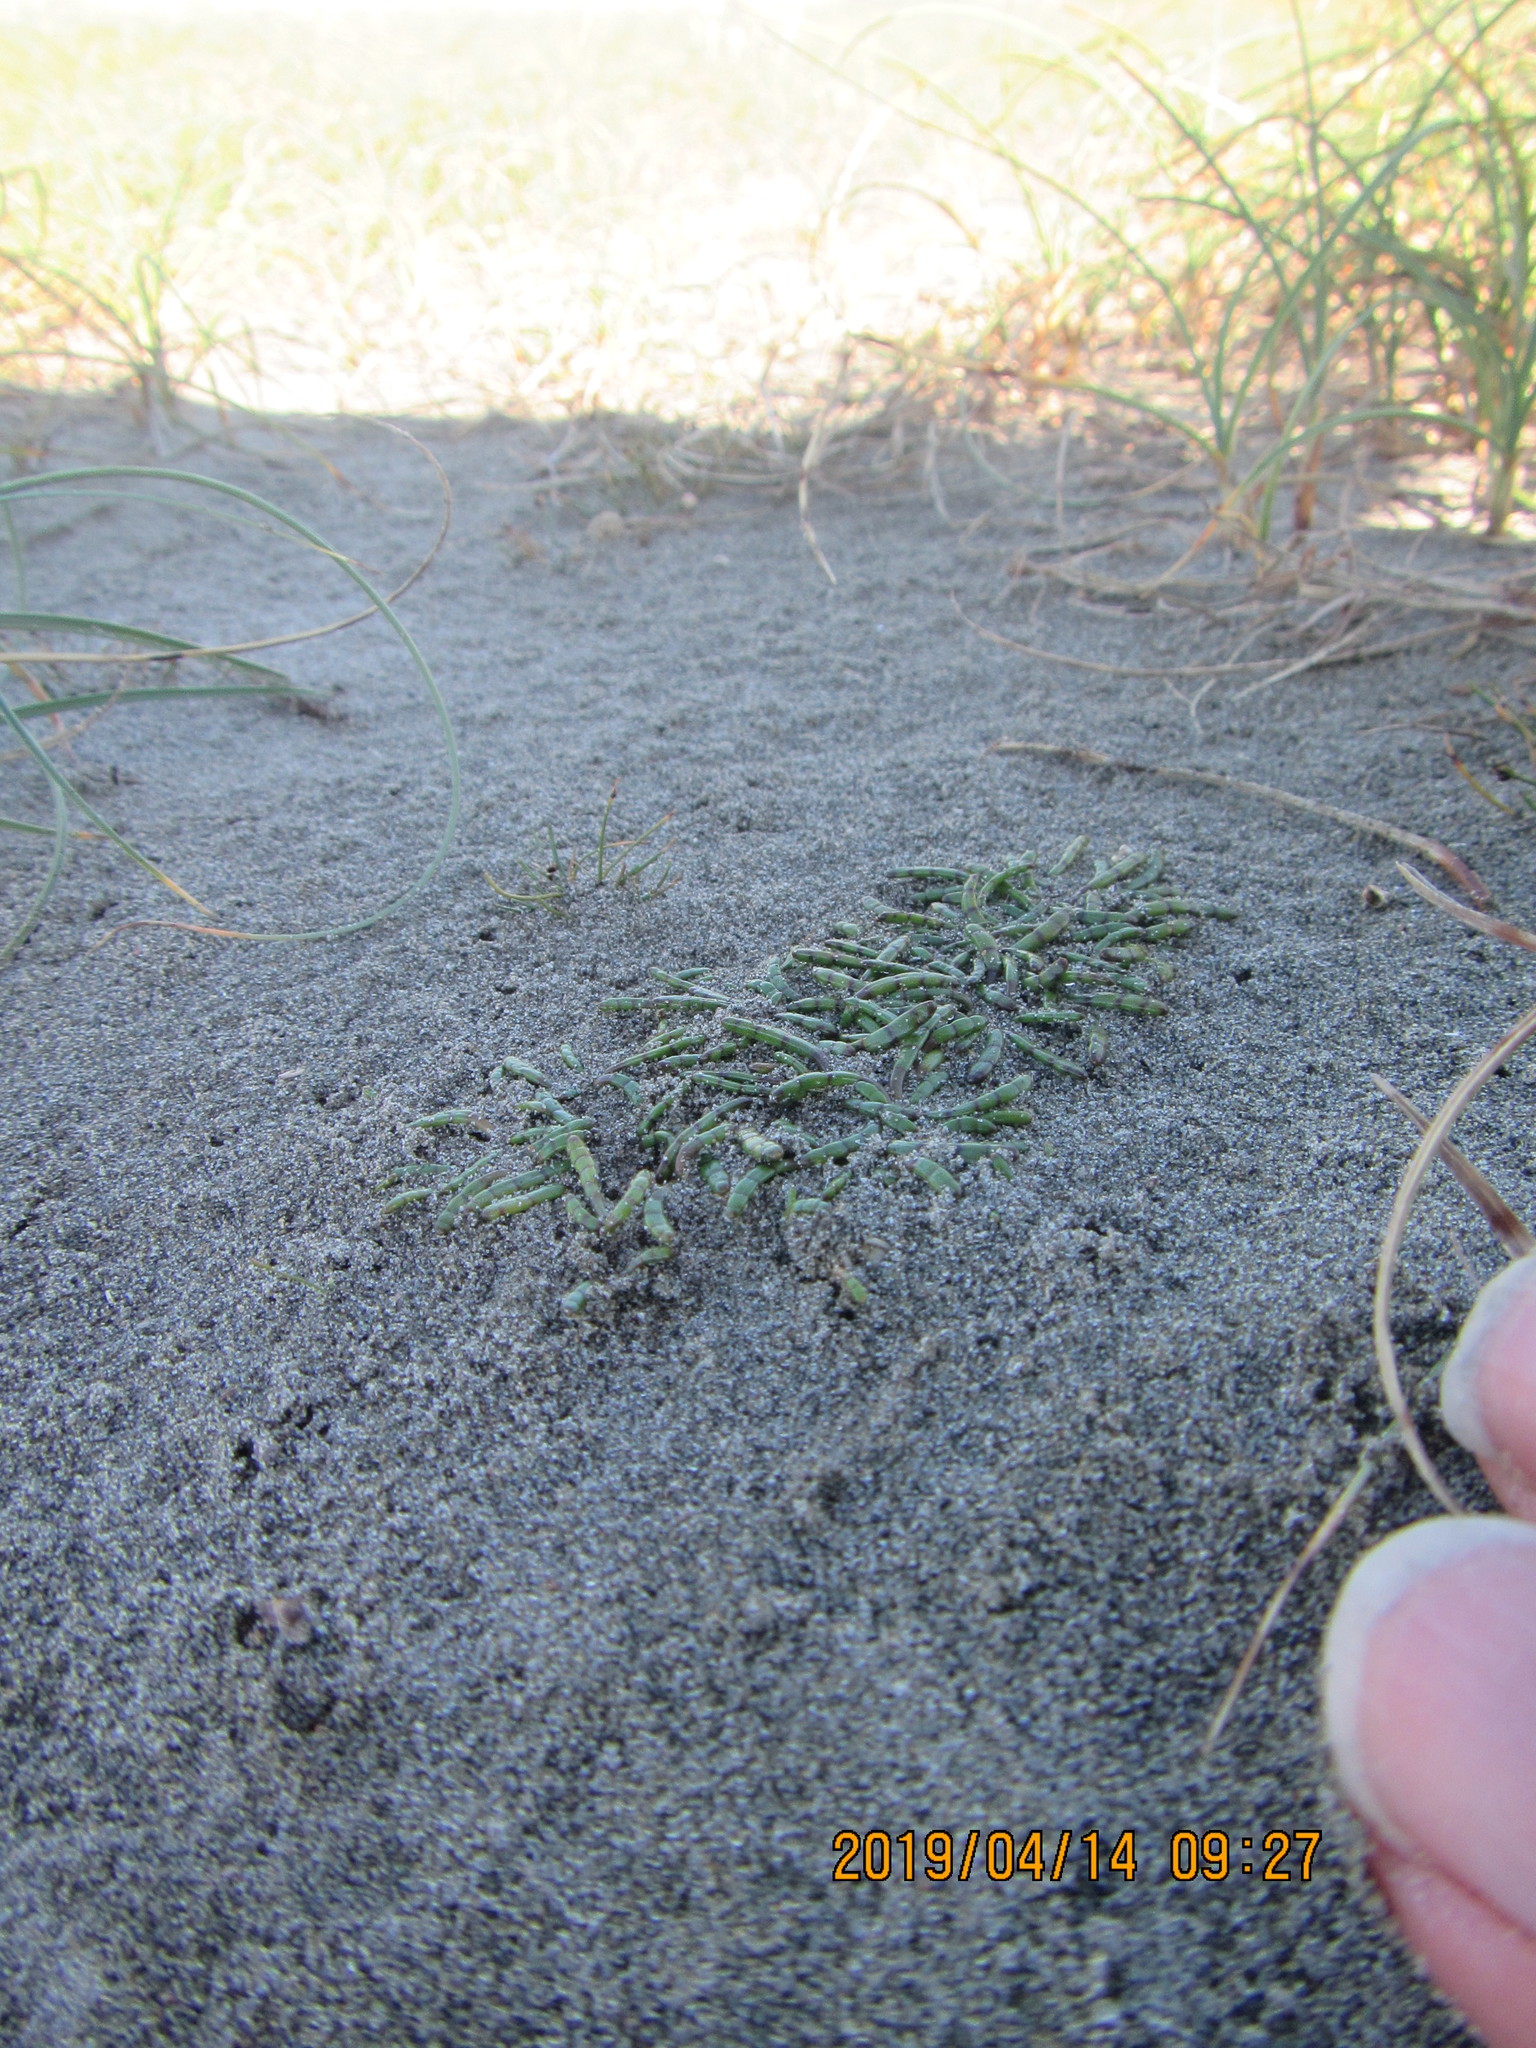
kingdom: Plantae
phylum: Tracheophyta
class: Magnoliopsida
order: Apiales
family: Apiaceae
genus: Lilaeopsis
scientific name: Lilaeopsis novae-zelandiae
